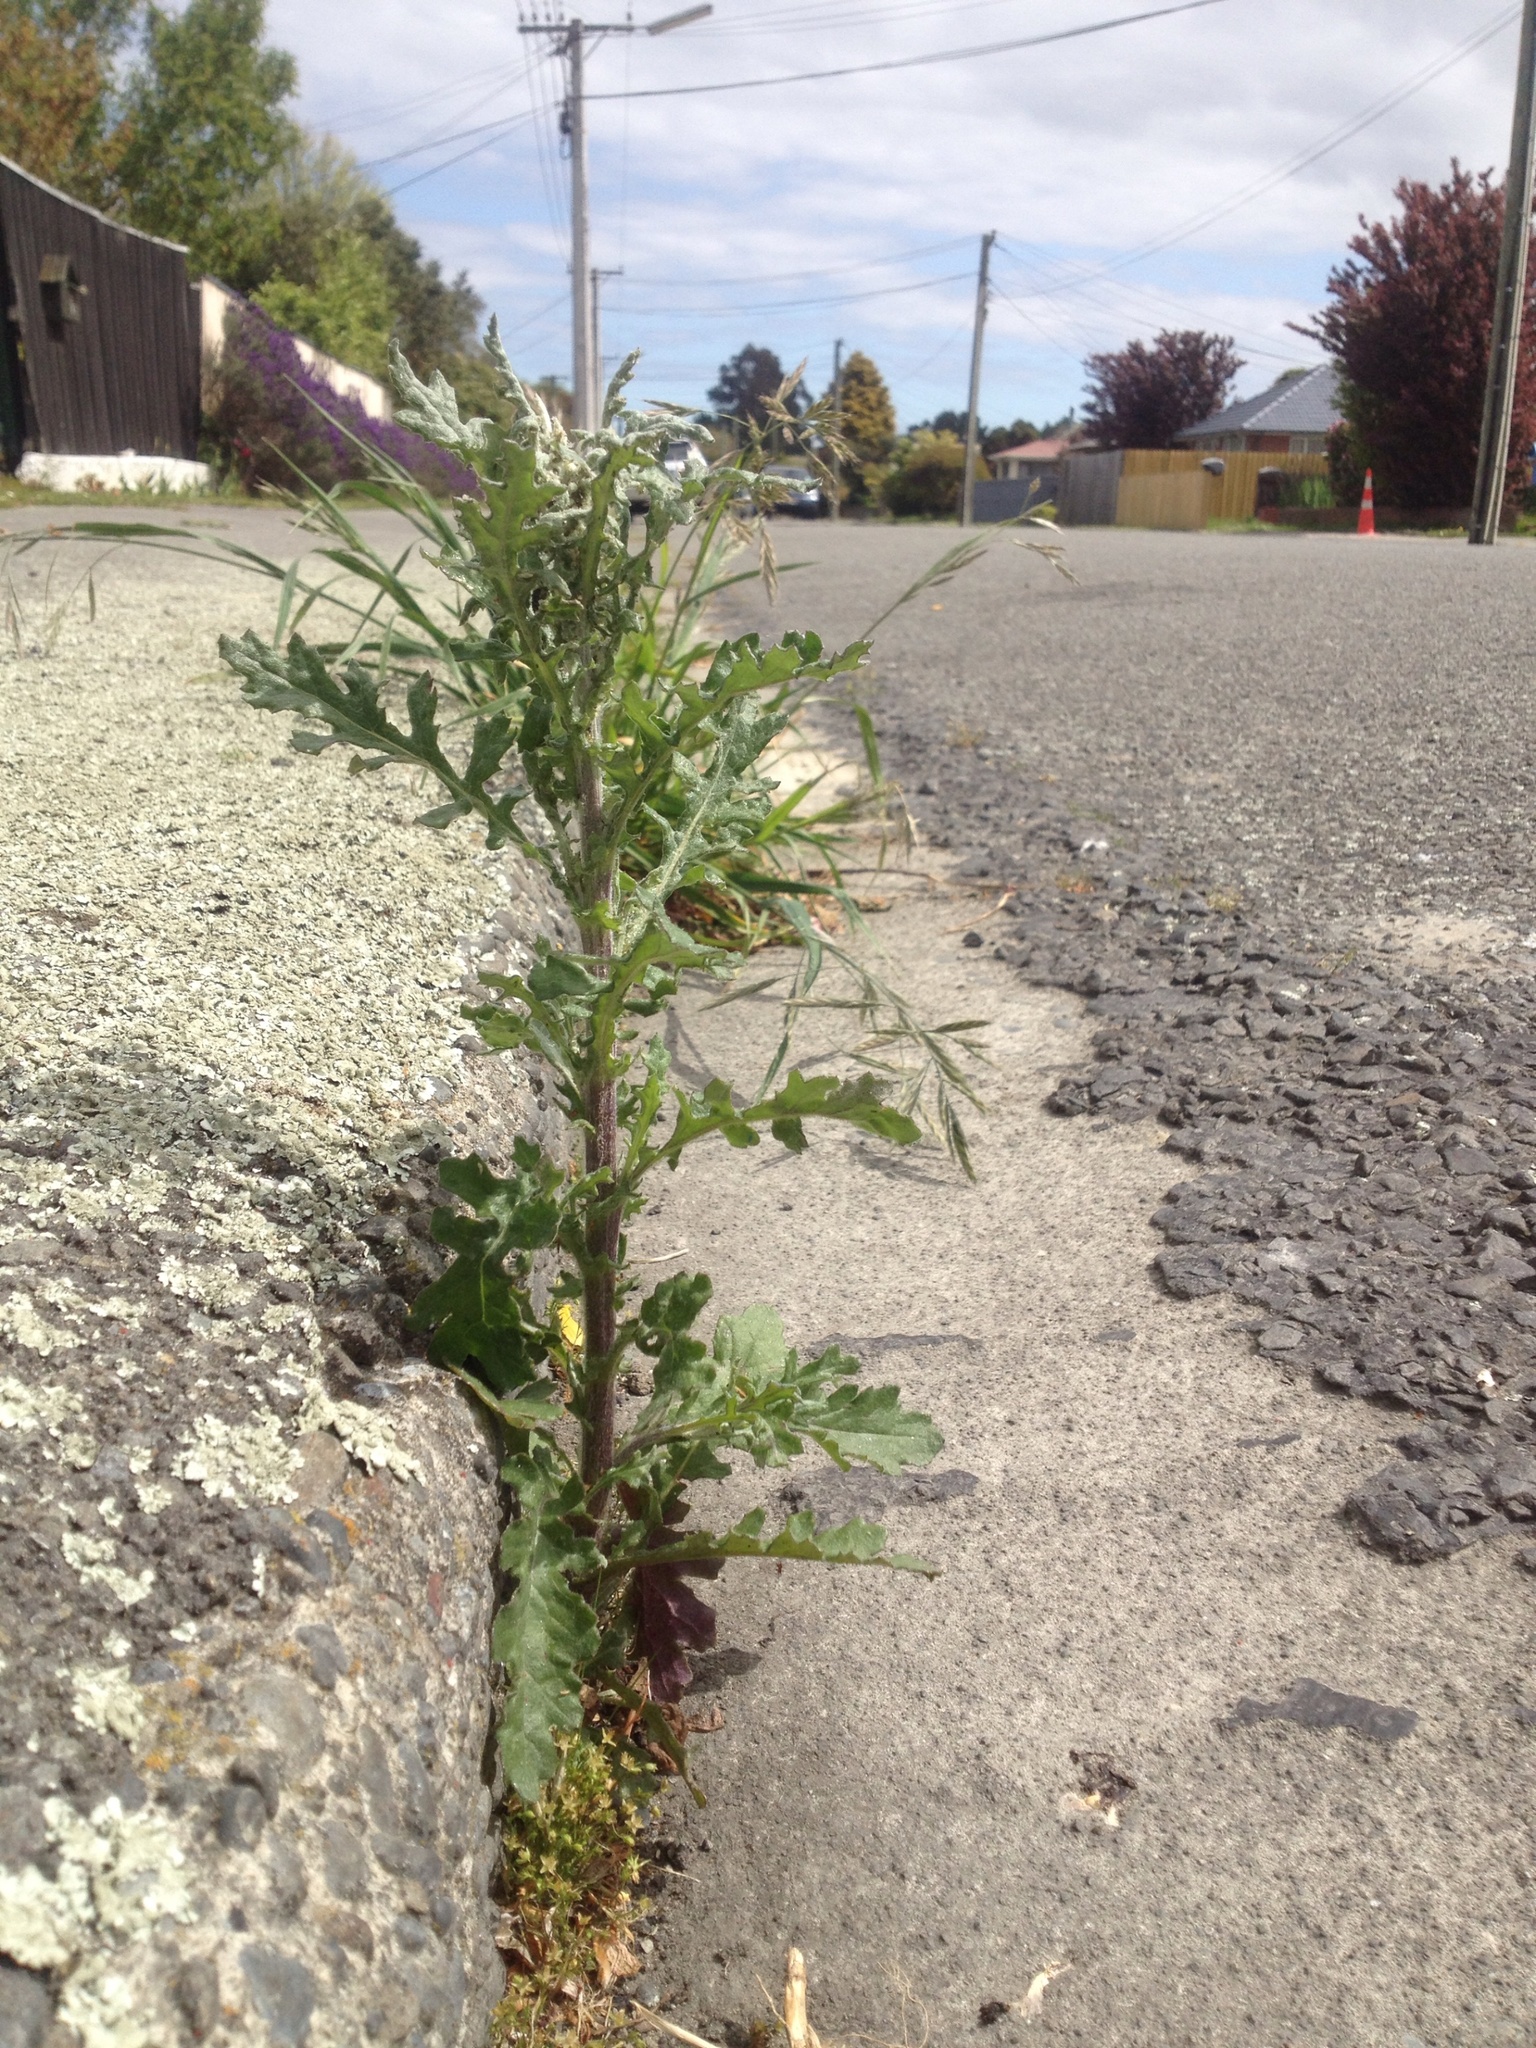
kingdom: Plantae
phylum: Tracheophyta
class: Magnoliopsida
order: Asterales
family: Asteraceae
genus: Senecio
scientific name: Senecio glomeratus
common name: Cutleaf burnweed
